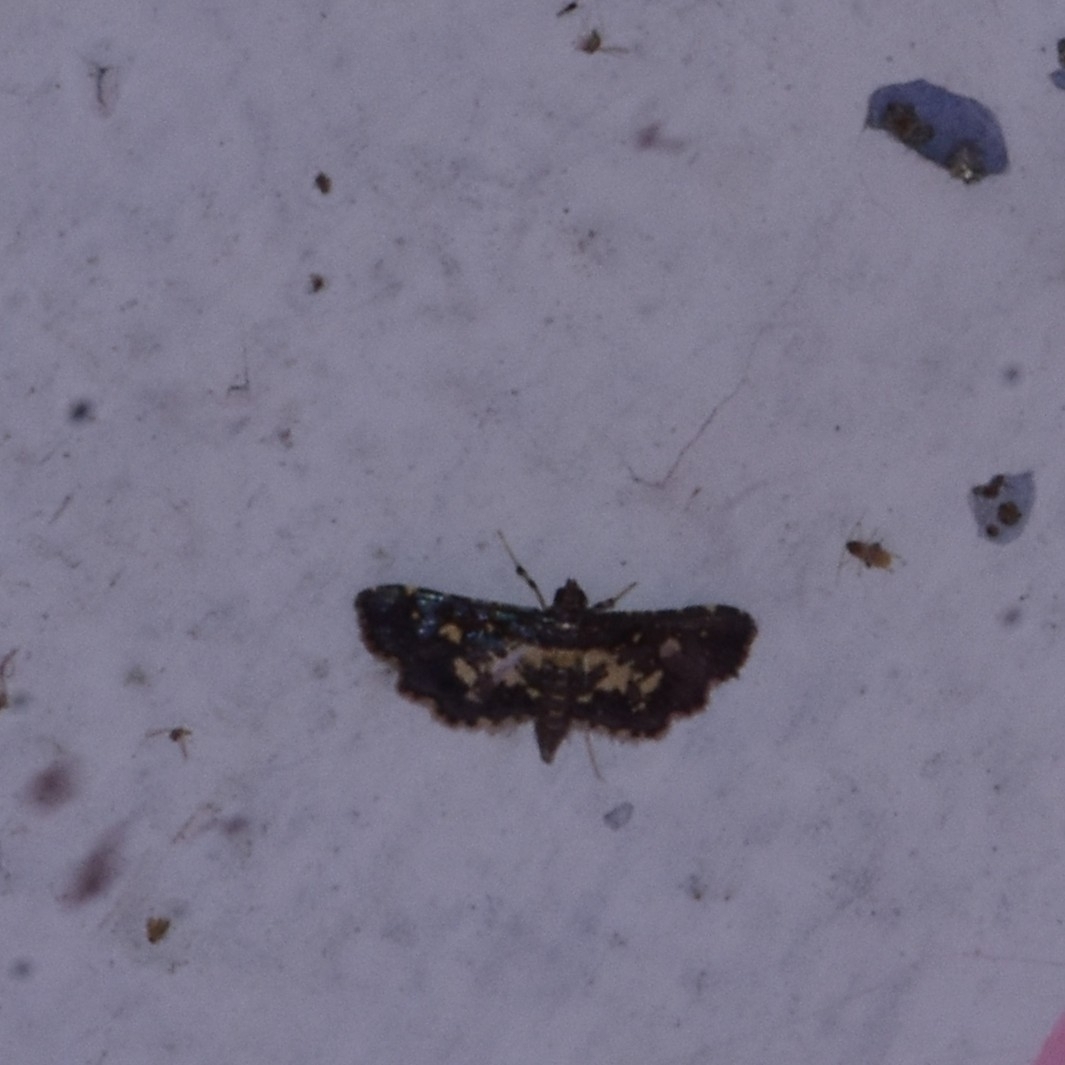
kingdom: Animalia
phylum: Arthropoda
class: Insecta
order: Lepidoptera
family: Crambidae
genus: Eurrhyparodes
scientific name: Eurrhyparodes bracteolalis
